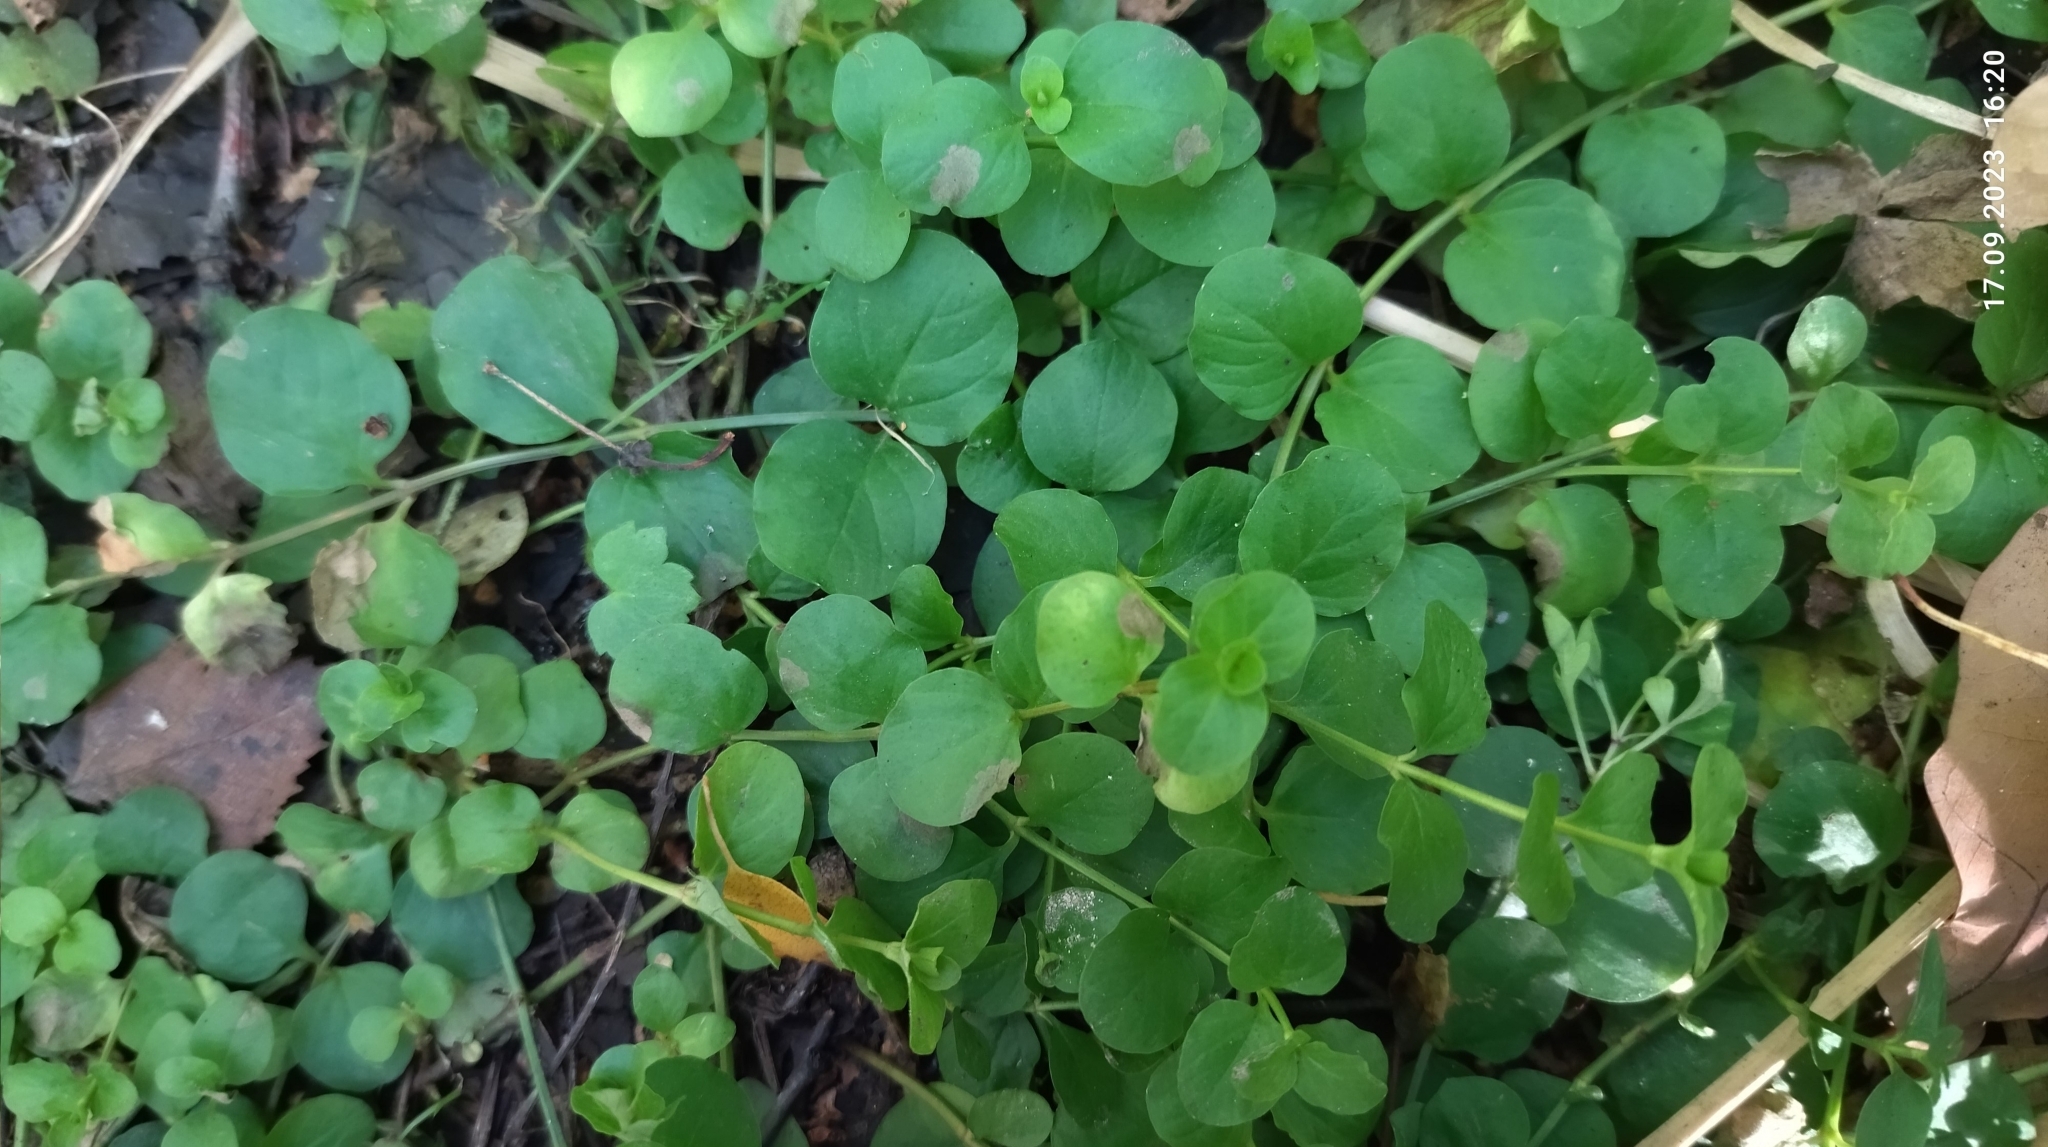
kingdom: Plantae
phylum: Tracheophyta
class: Magnoliopsida
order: Ericales
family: Primulaceae
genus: Lysimachia
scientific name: Lysimachia nummularia
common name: Moneywort
